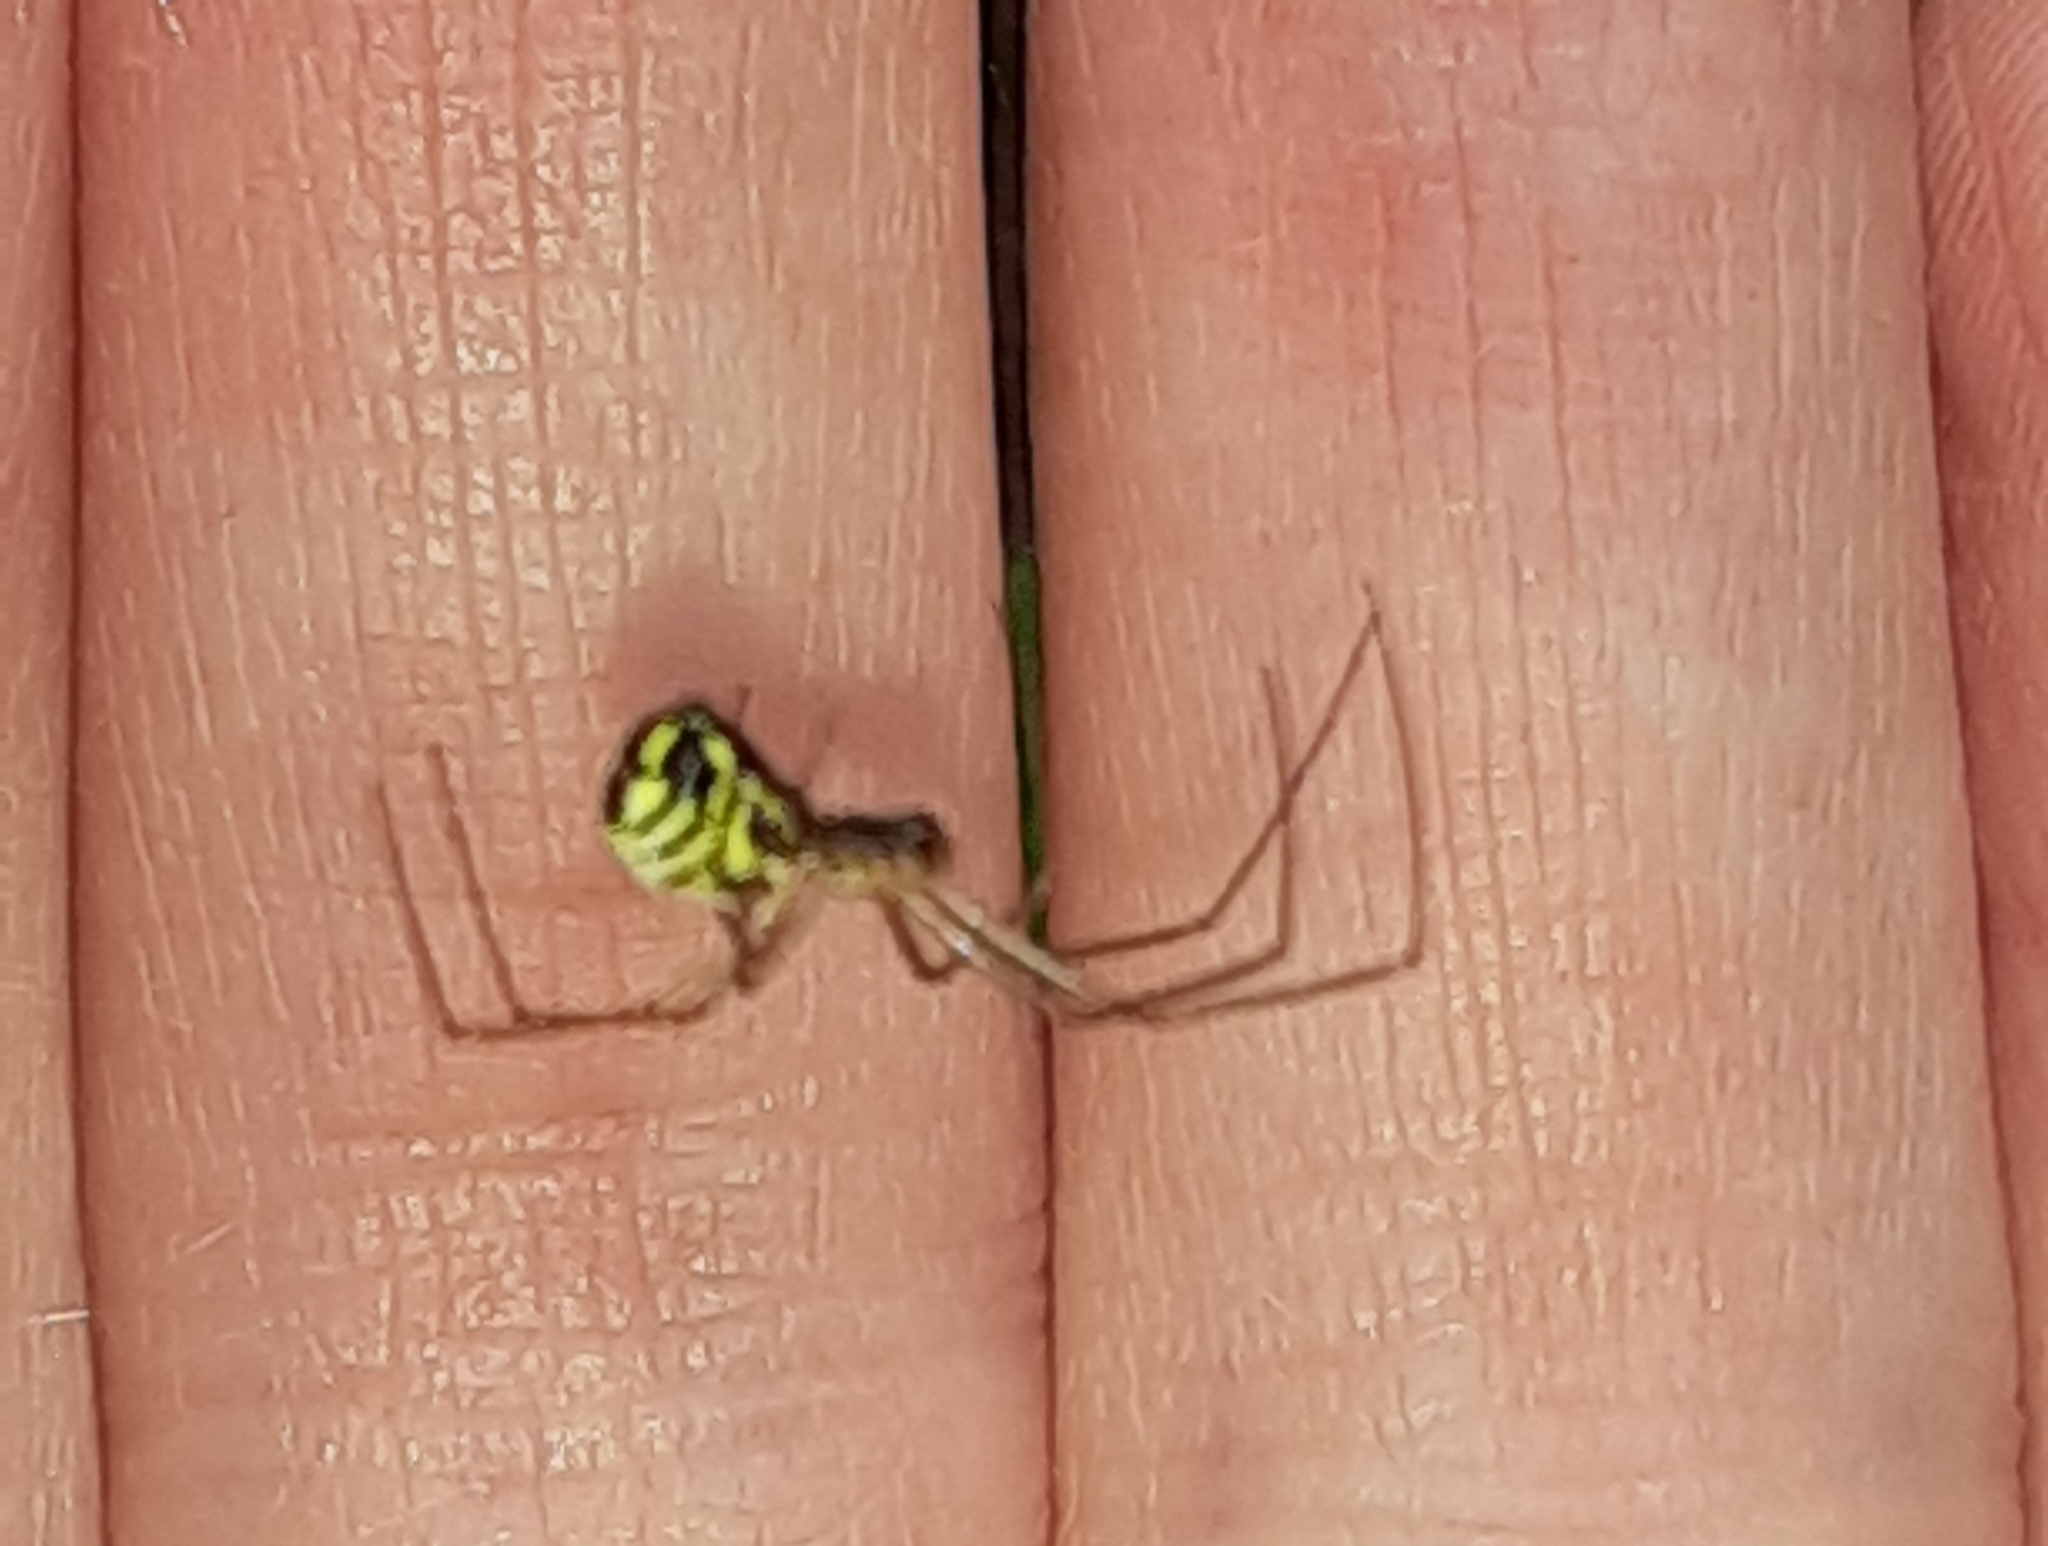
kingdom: Animalia
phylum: Arthropoda
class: Arachnida
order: Araneae
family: Linyphiidae
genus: Neriene
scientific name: Neriene radiata
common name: Filmy dome spider
